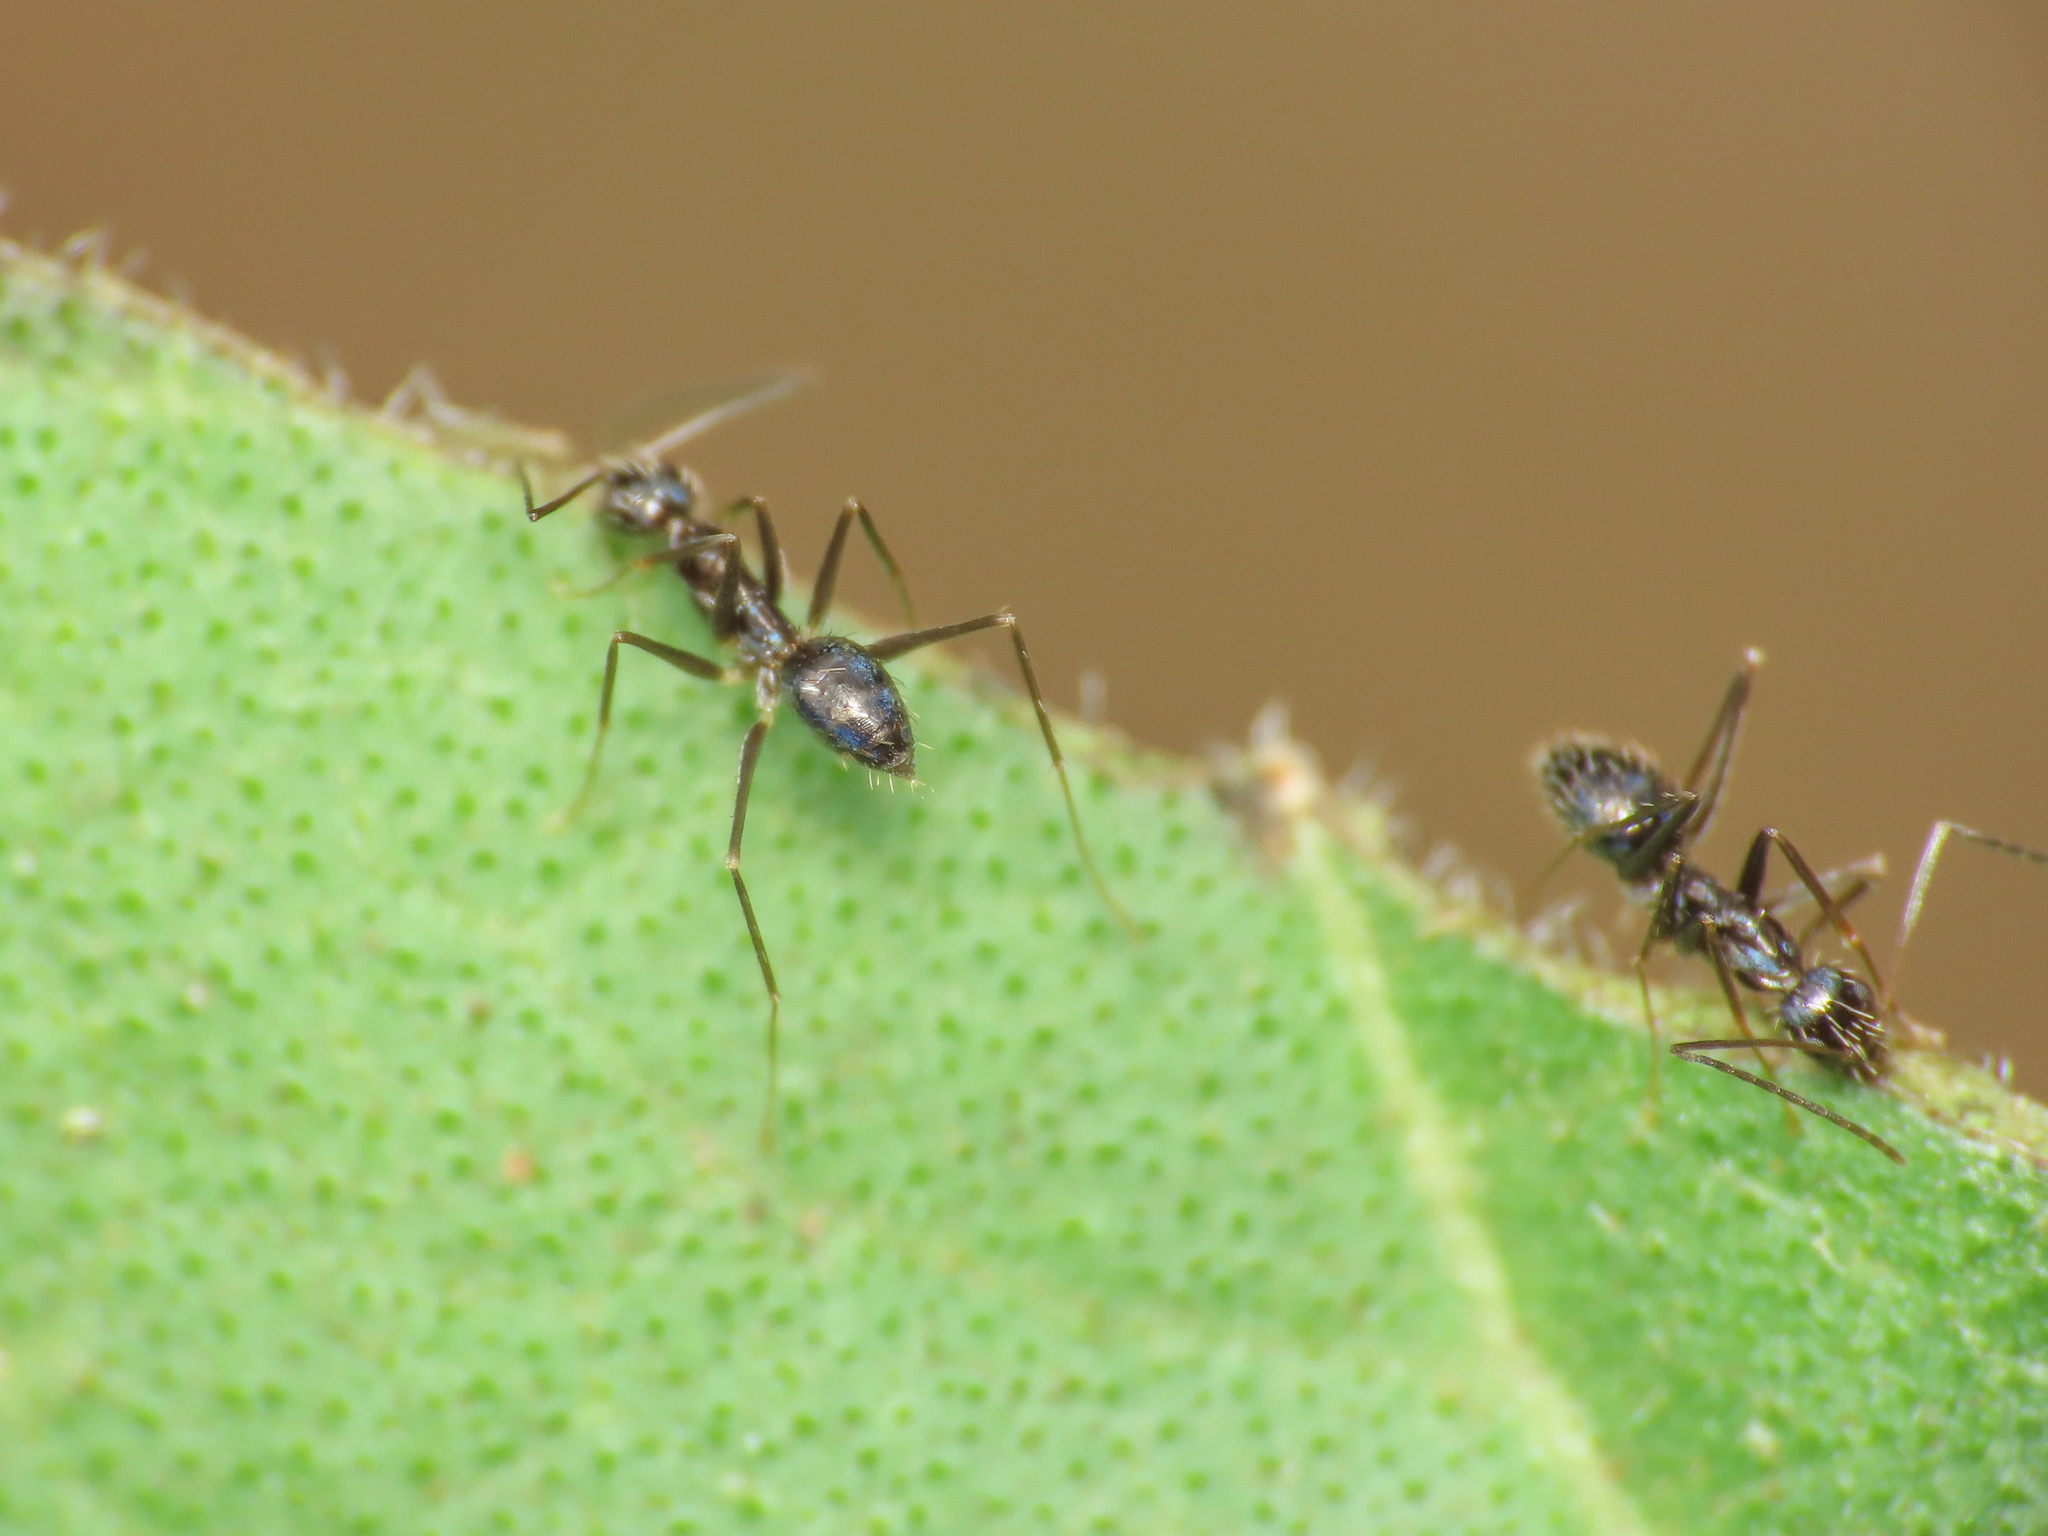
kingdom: Animalia
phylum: Arthropoda
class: Insecta
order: Hymenoptera
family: Formicidae
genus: Paratrechina
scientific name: Paratrechina longicornis
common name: Longhorned crazy ant
